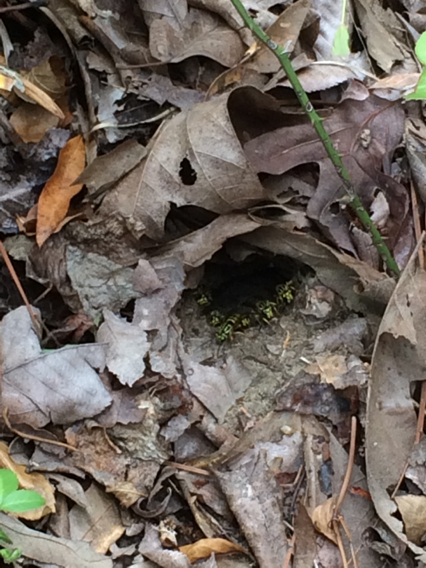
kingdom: Animalia
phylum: Arthropoda
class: Insecta
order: Hymenoptera
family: Vespidae
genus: Vespula
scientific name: Vespula squamosa
